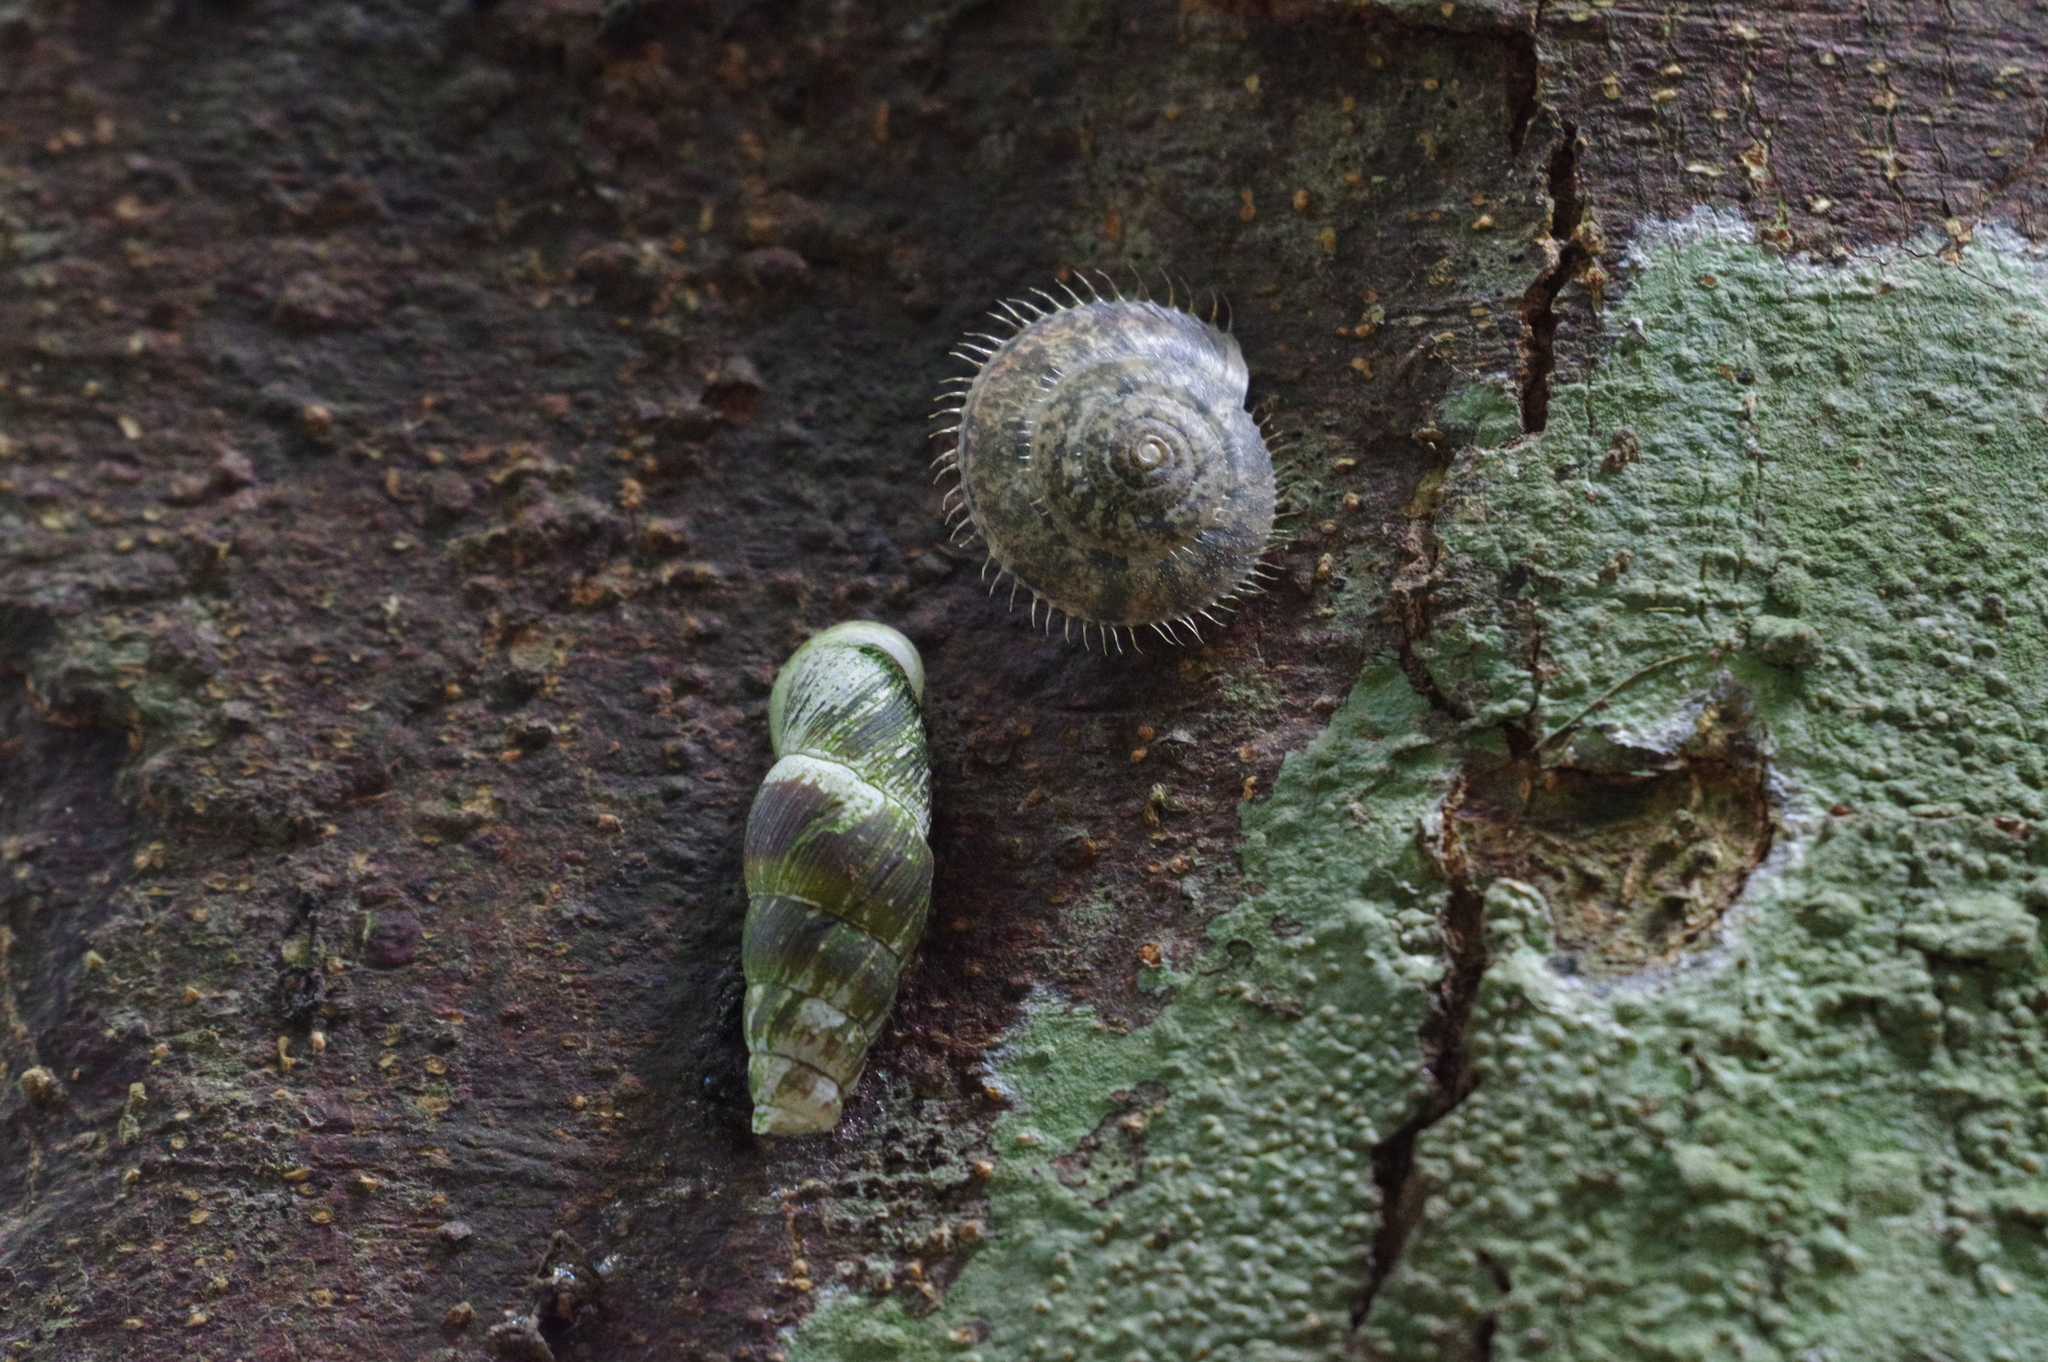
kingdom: Animalia
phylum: Mollusca
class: Gastropoda
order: Stylommatophora
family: Camaenidae
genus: Plectotropis
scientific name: Plectotropis elegantissima
